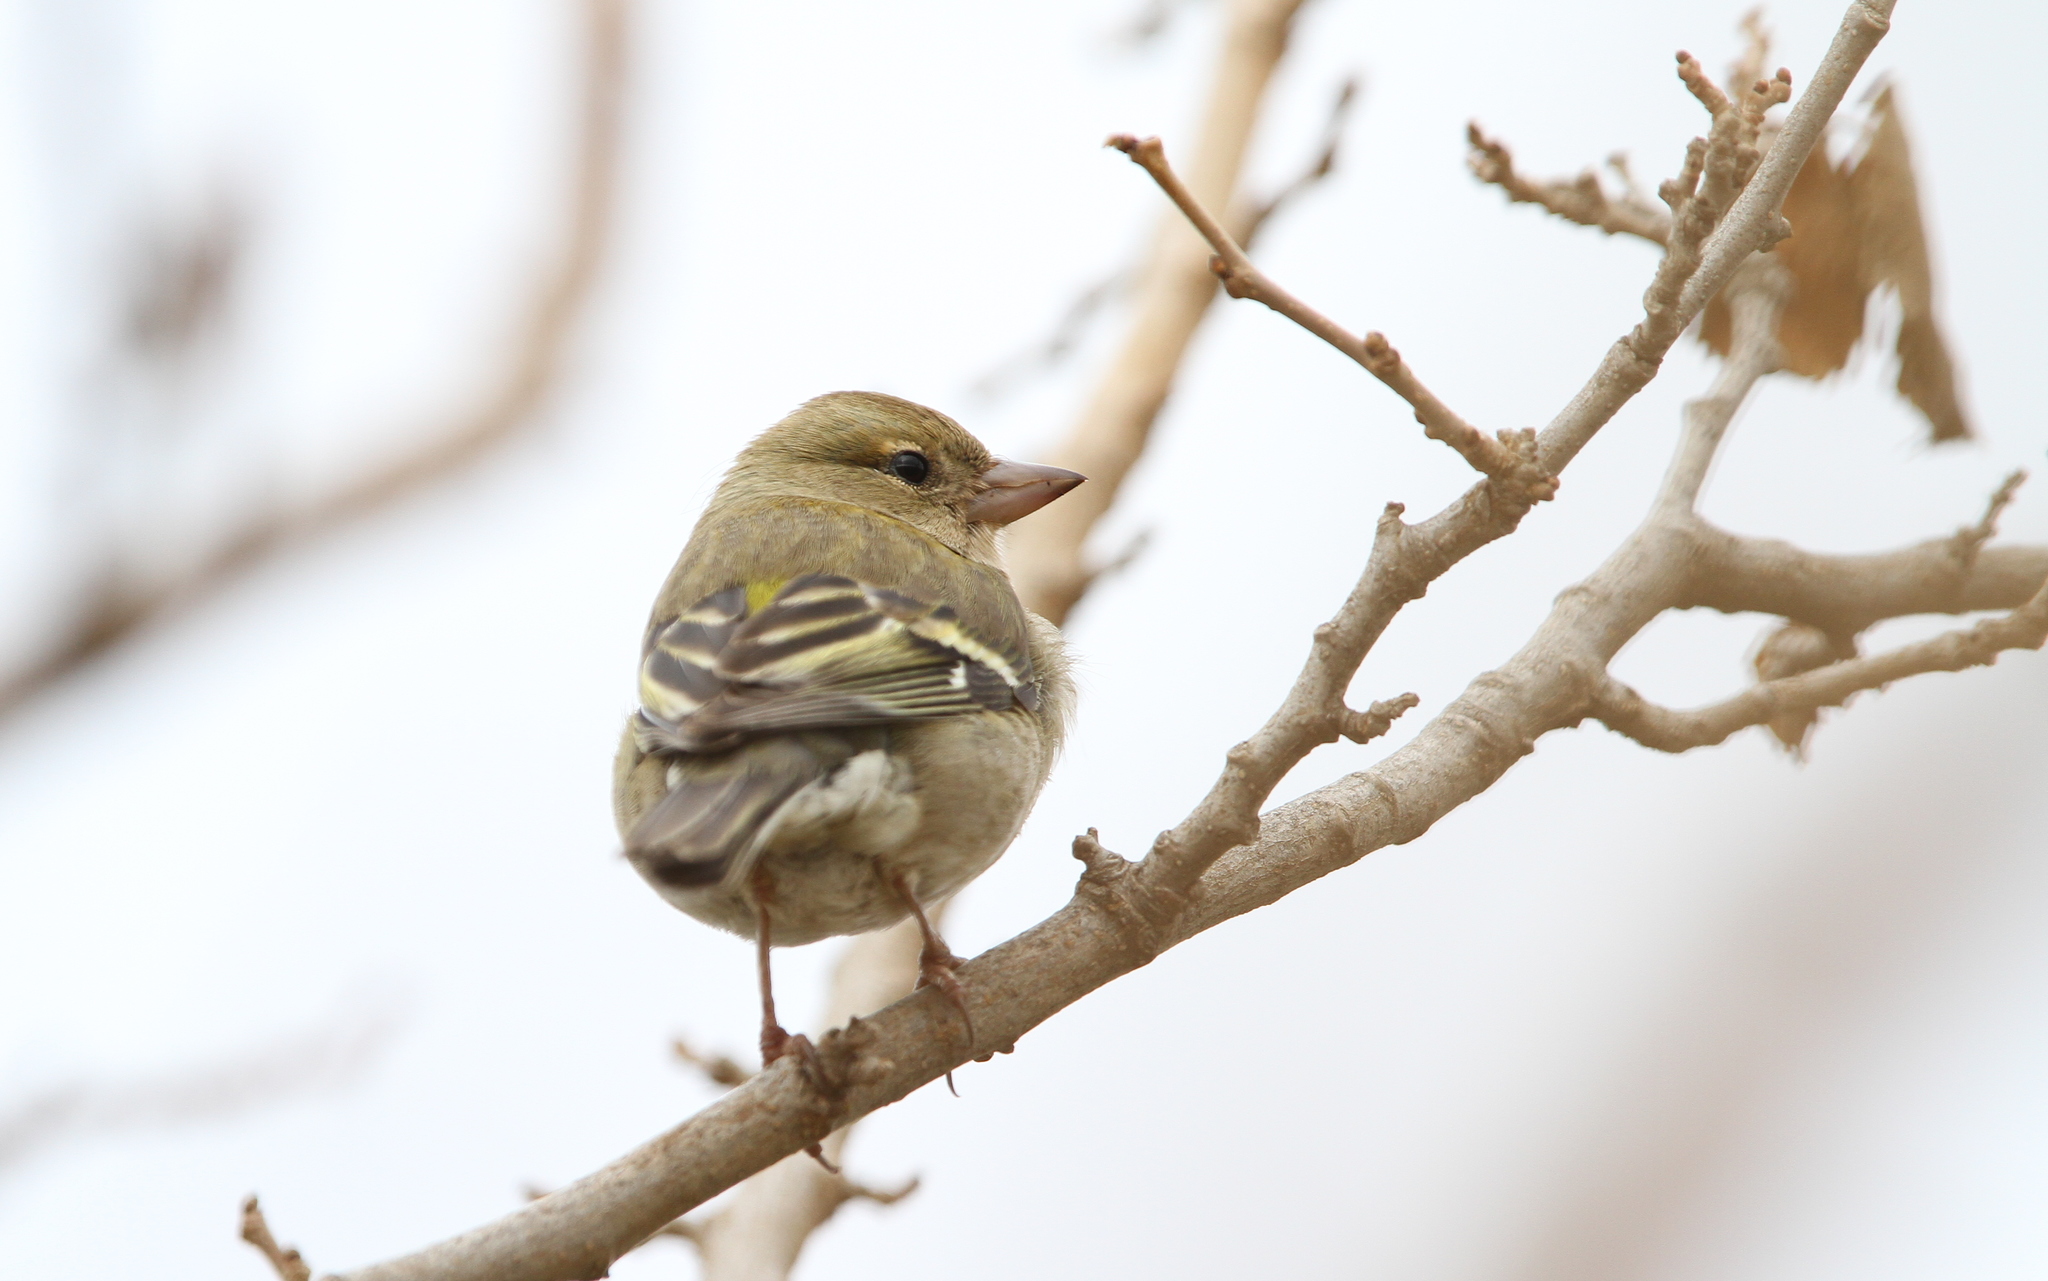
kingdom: Animalia
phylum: Chordata
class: Aves
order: Passeriformes
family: Fringillidae
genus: Fringilla
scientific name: Fringilla spodiogenys
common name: African chaffinch
